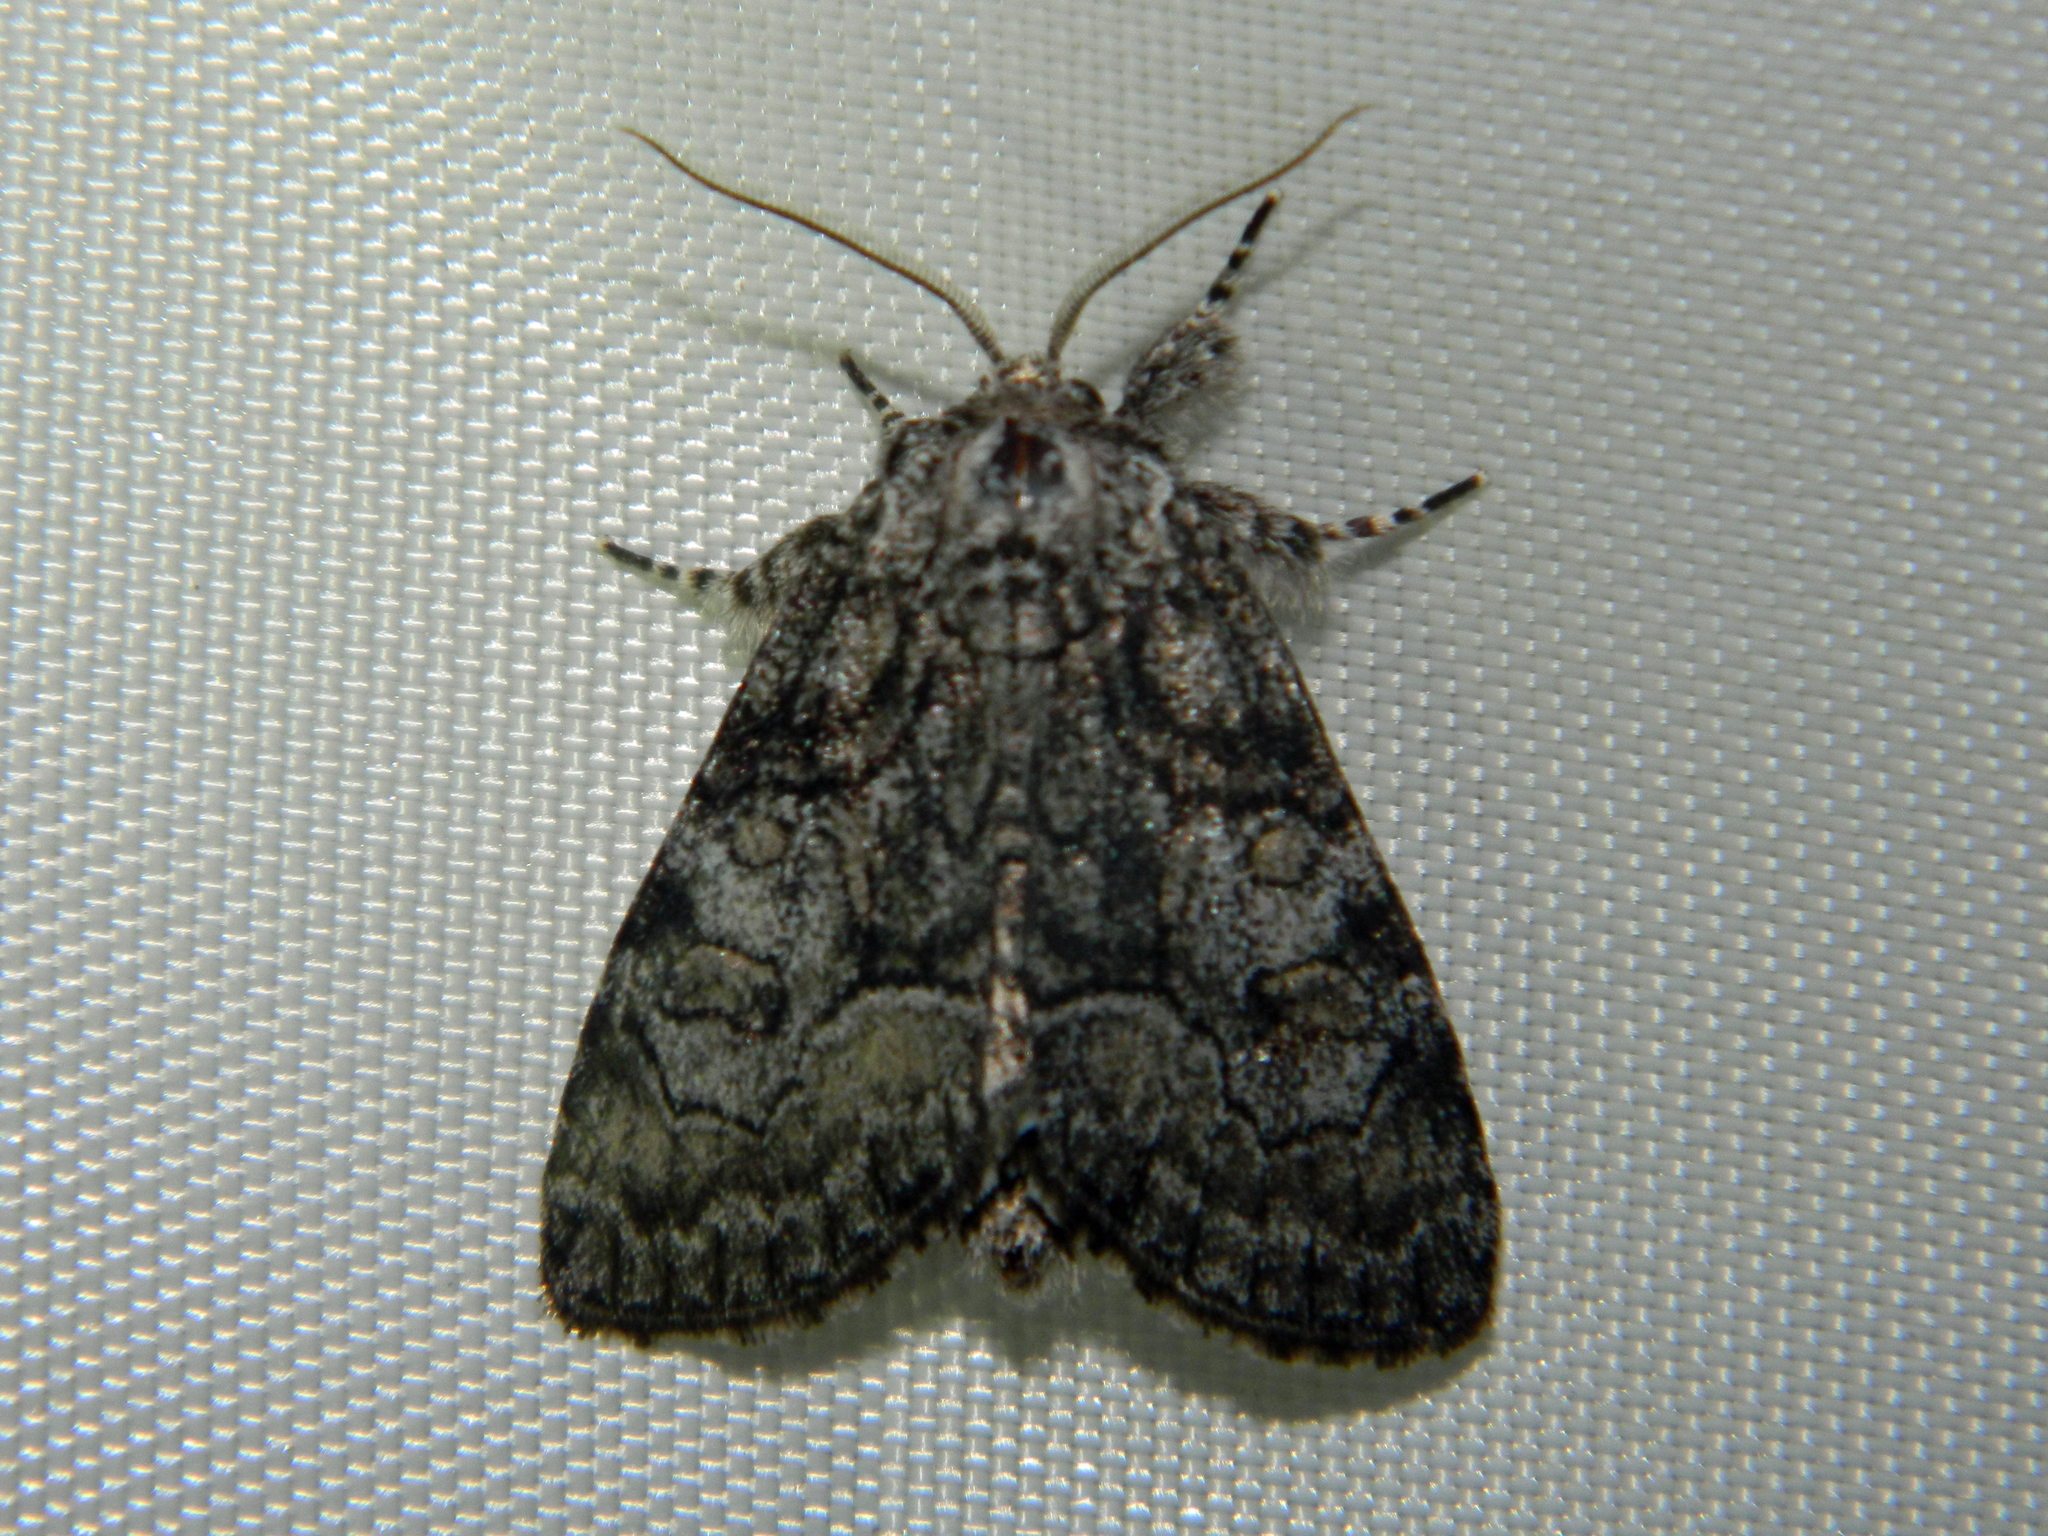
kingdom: Animalia
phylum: Arthropoda
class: Insecta
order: Lepidoptera
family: Noctuidae
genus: Raphia
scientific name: Raphia frater
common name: Brother
